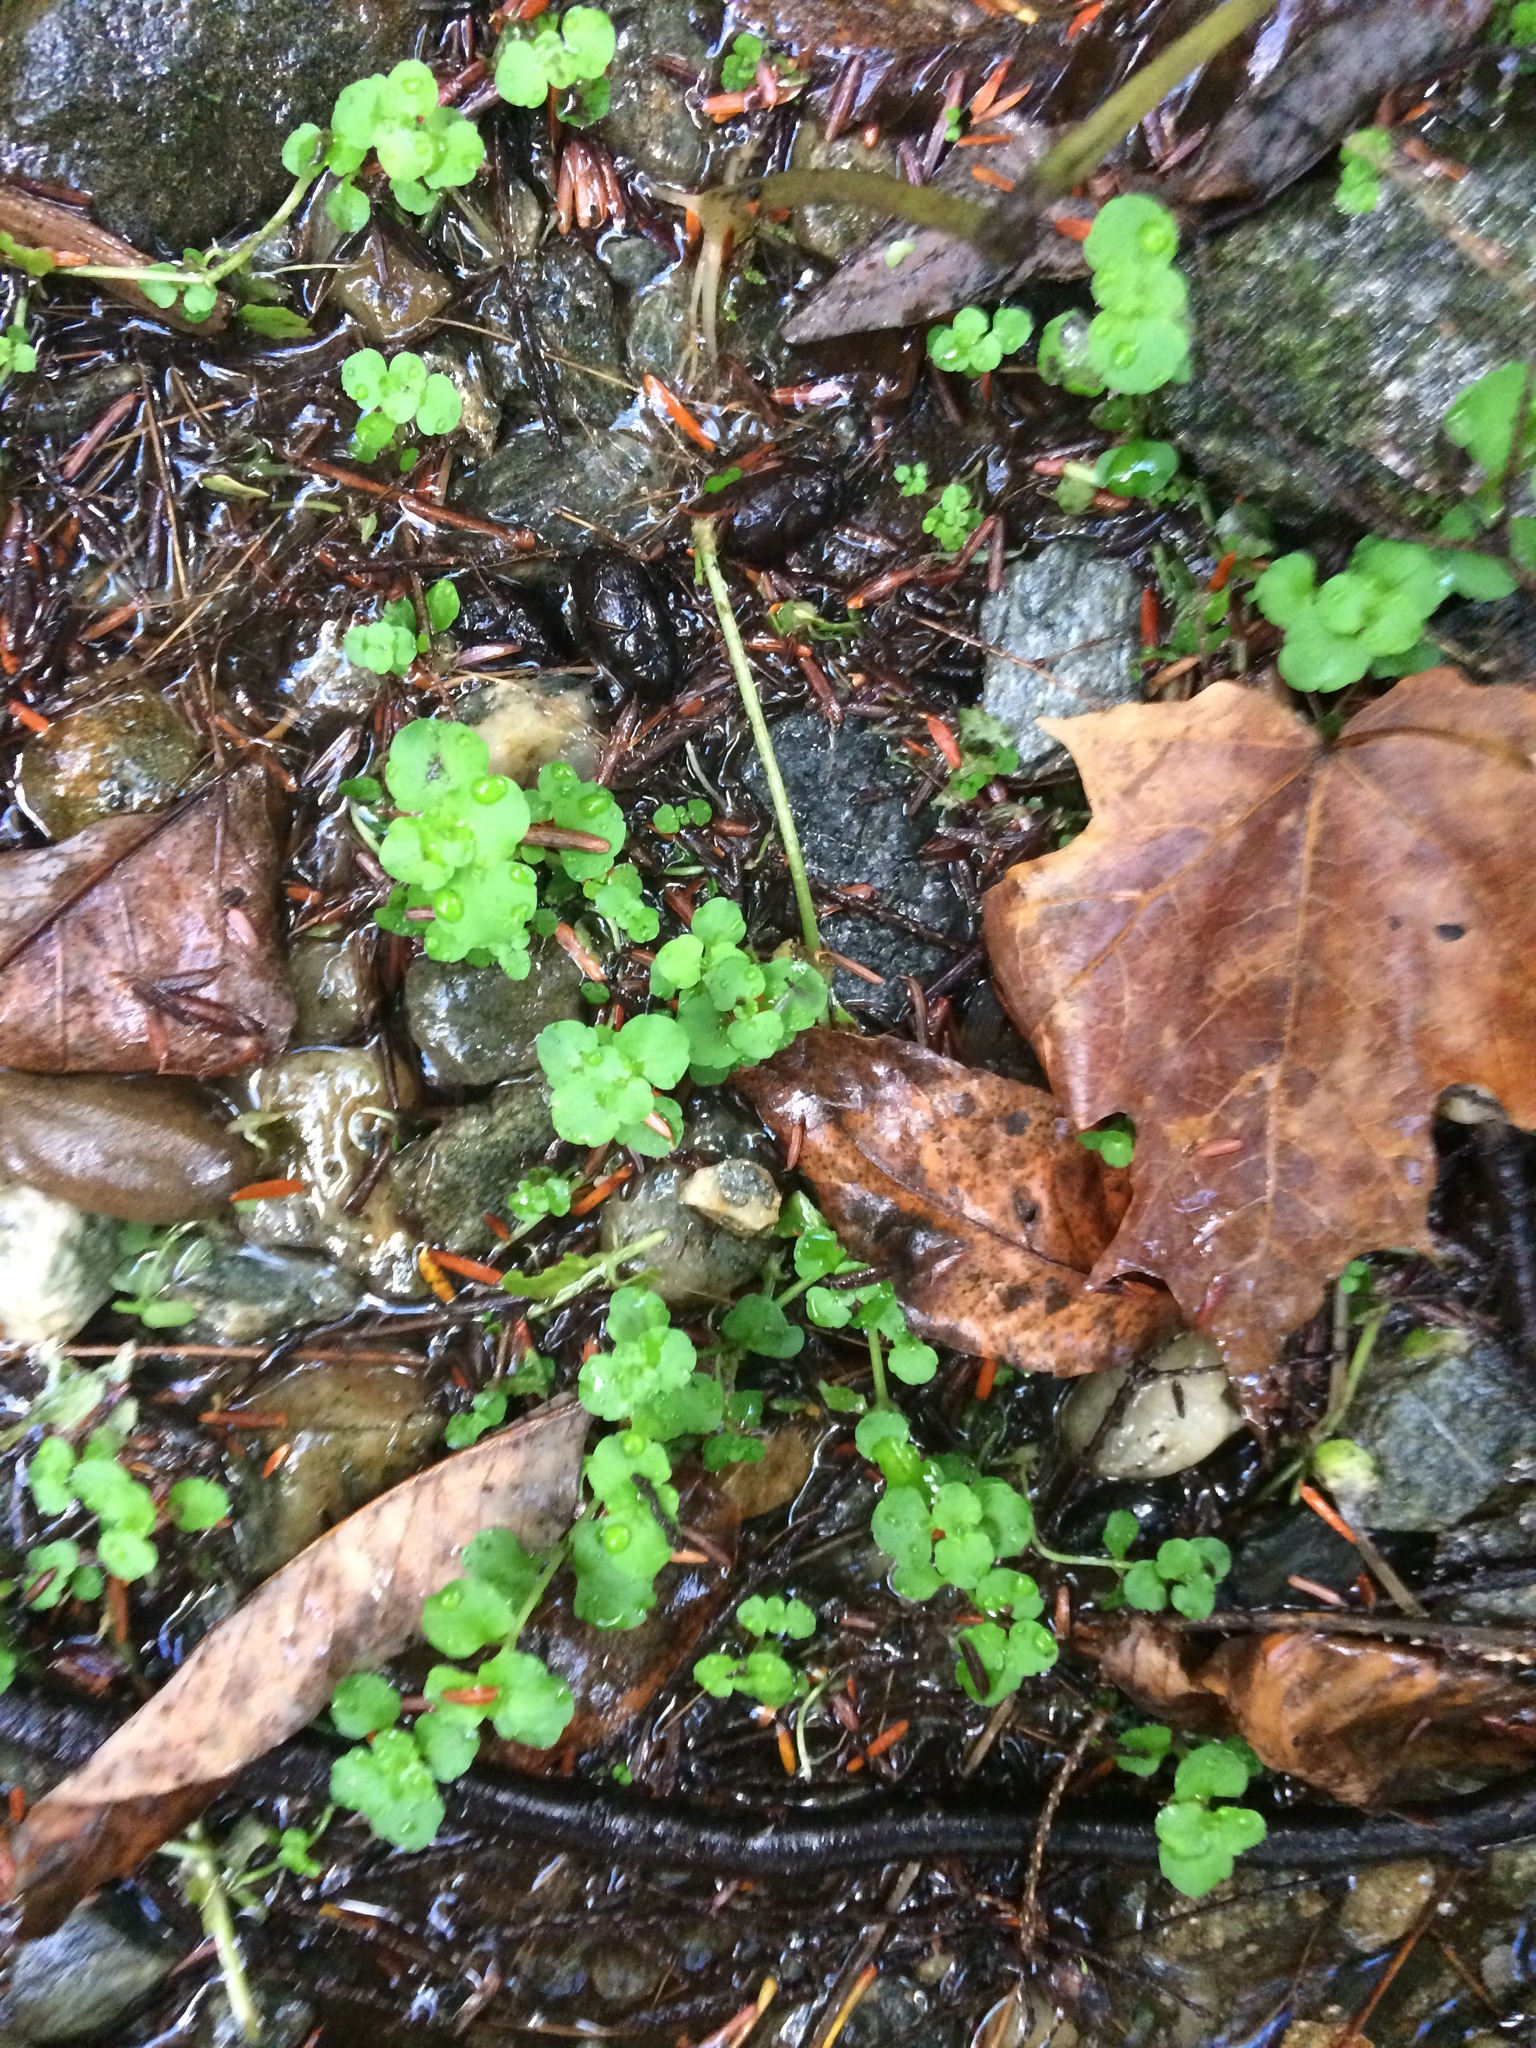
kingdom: Plantae
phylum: Tracheophyta
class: Magnoliopsida
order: Saxifragales
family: Saxifragaceae
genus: Chrysosplenium
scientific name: Chrysosplenium americanum
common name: American golden-saxifrage
